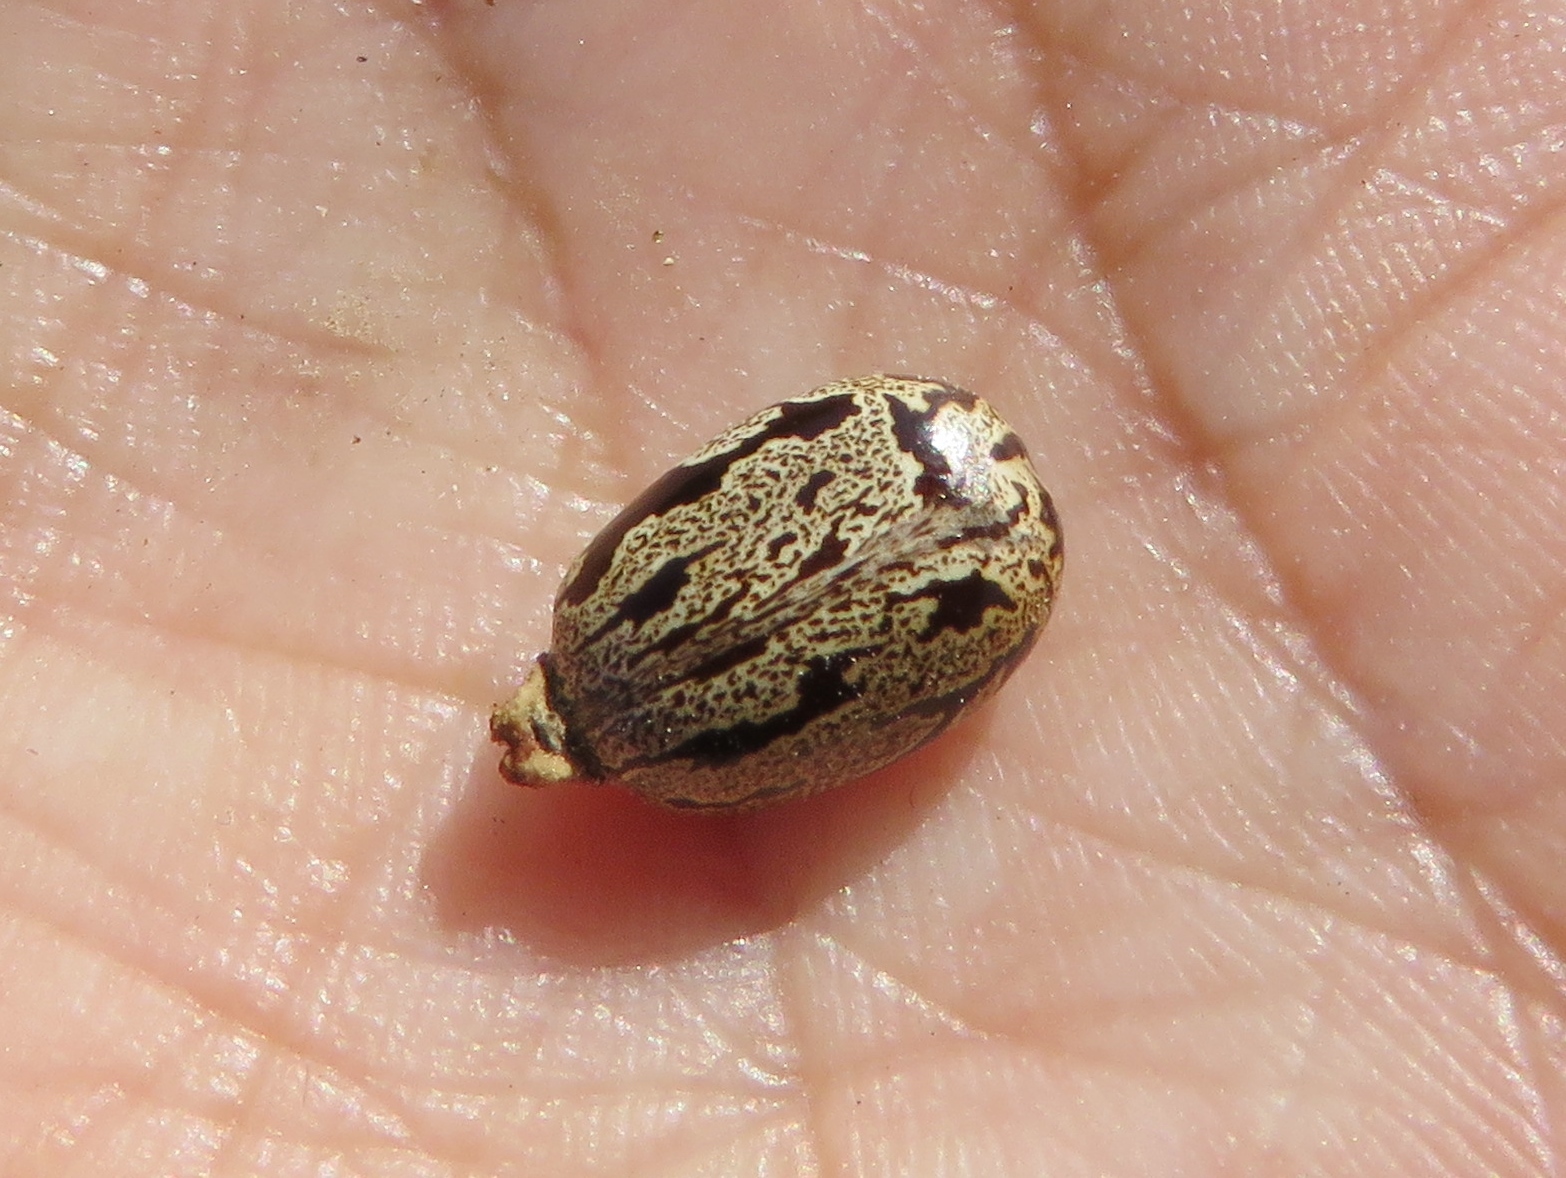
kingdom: Plantae
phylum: Tracheophyta
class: Magnoliopsida
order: Malpighiales
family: Euphorbiaceae
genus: Ricinus
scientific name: Ricinus communis
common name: Castor-oil-plant
